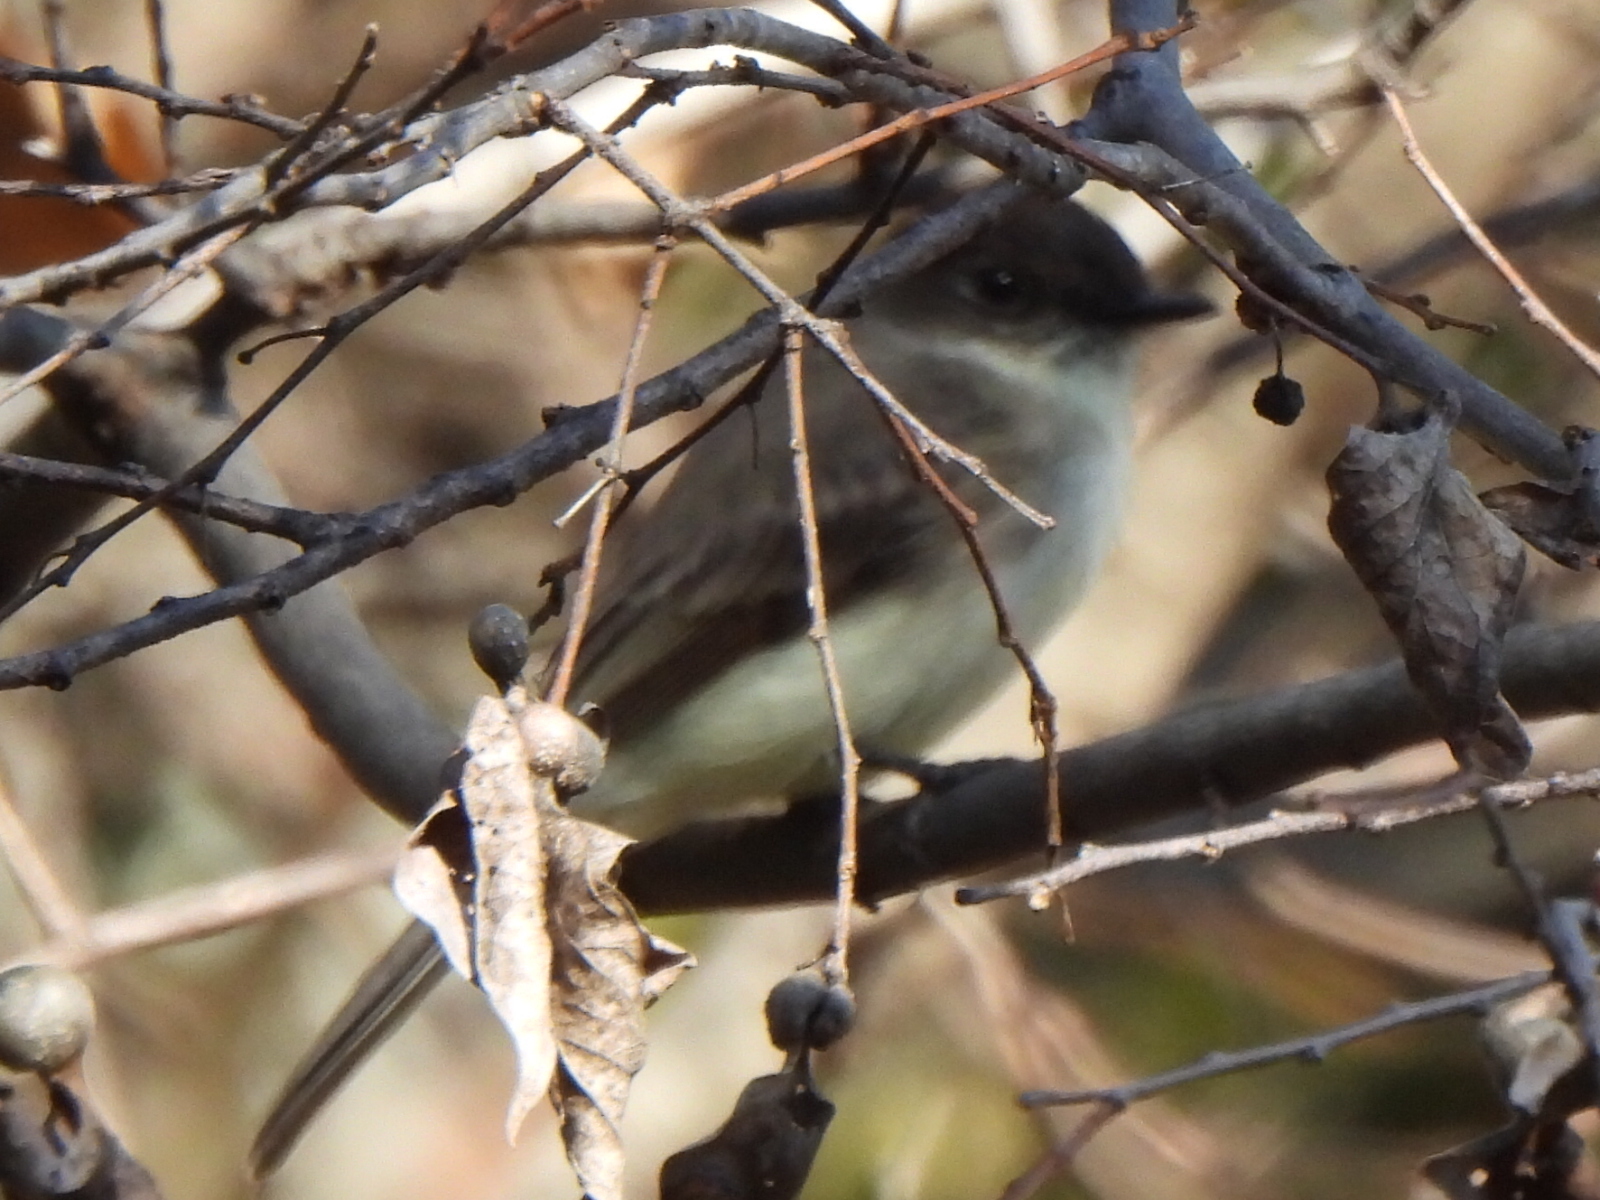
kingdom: Animalia
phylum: Chordata
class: Aves
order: Passeriformes
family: Tyrannidae
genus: Sayornis
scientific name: Sayornis phoebe
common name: Eastern phoebe
